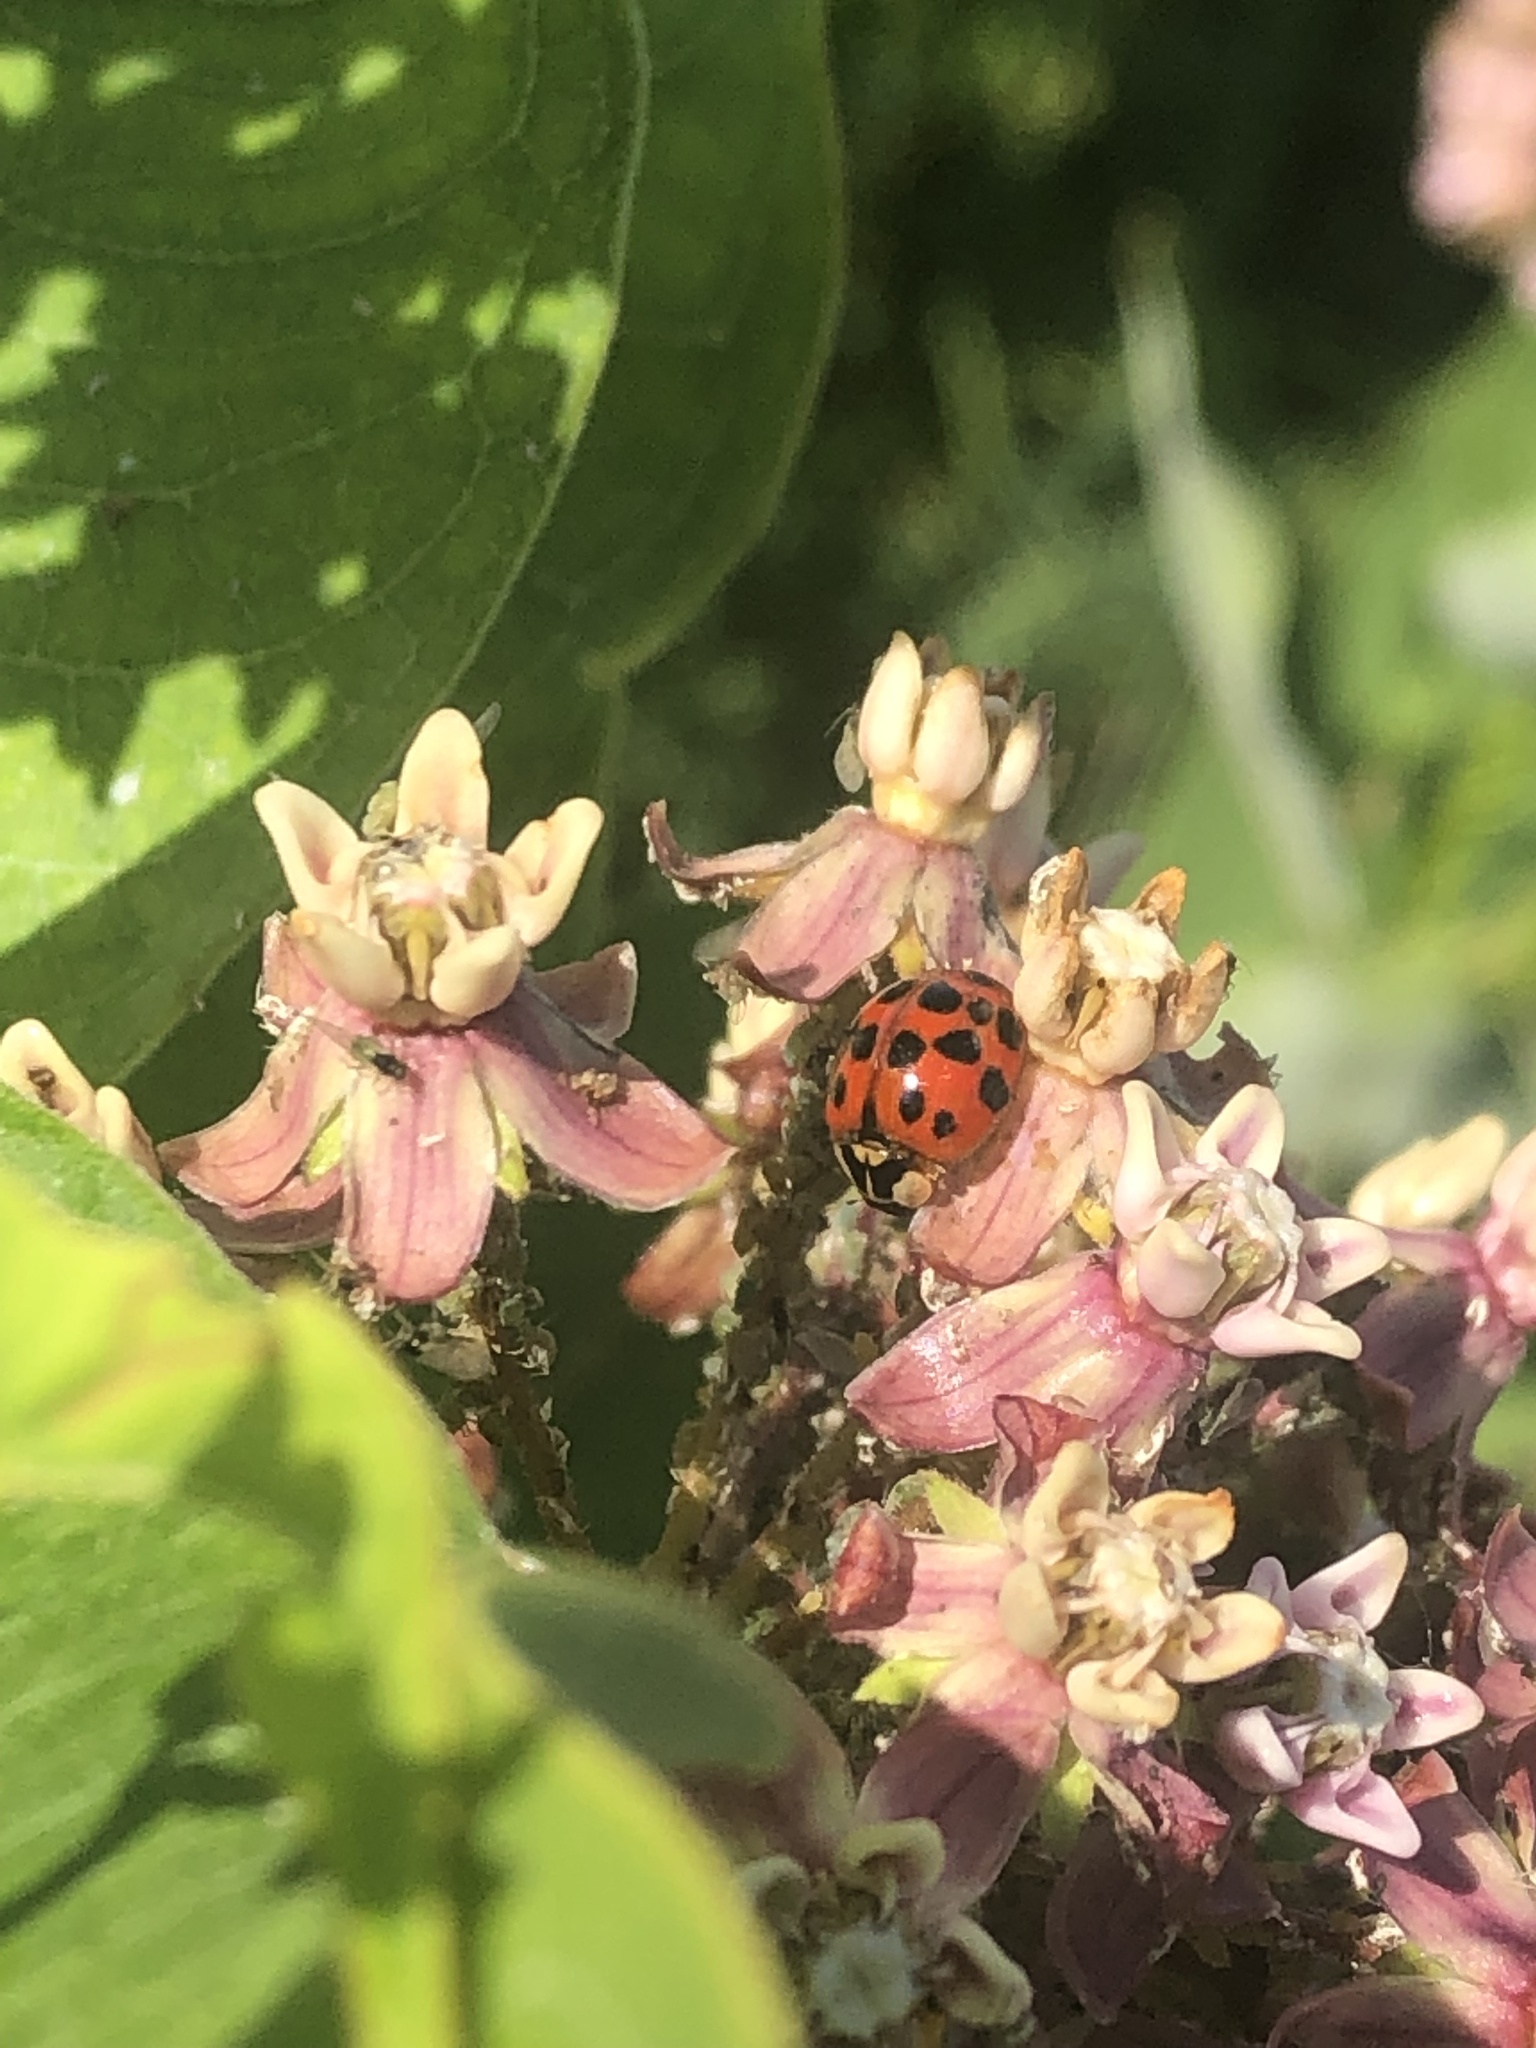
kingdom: Animalia
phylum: Arthropoda
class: Insecta
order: Coleoptera
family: Coccinellidae
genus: Harmonia
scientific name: Harmonia axyridis
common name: Harlequin ladybird
